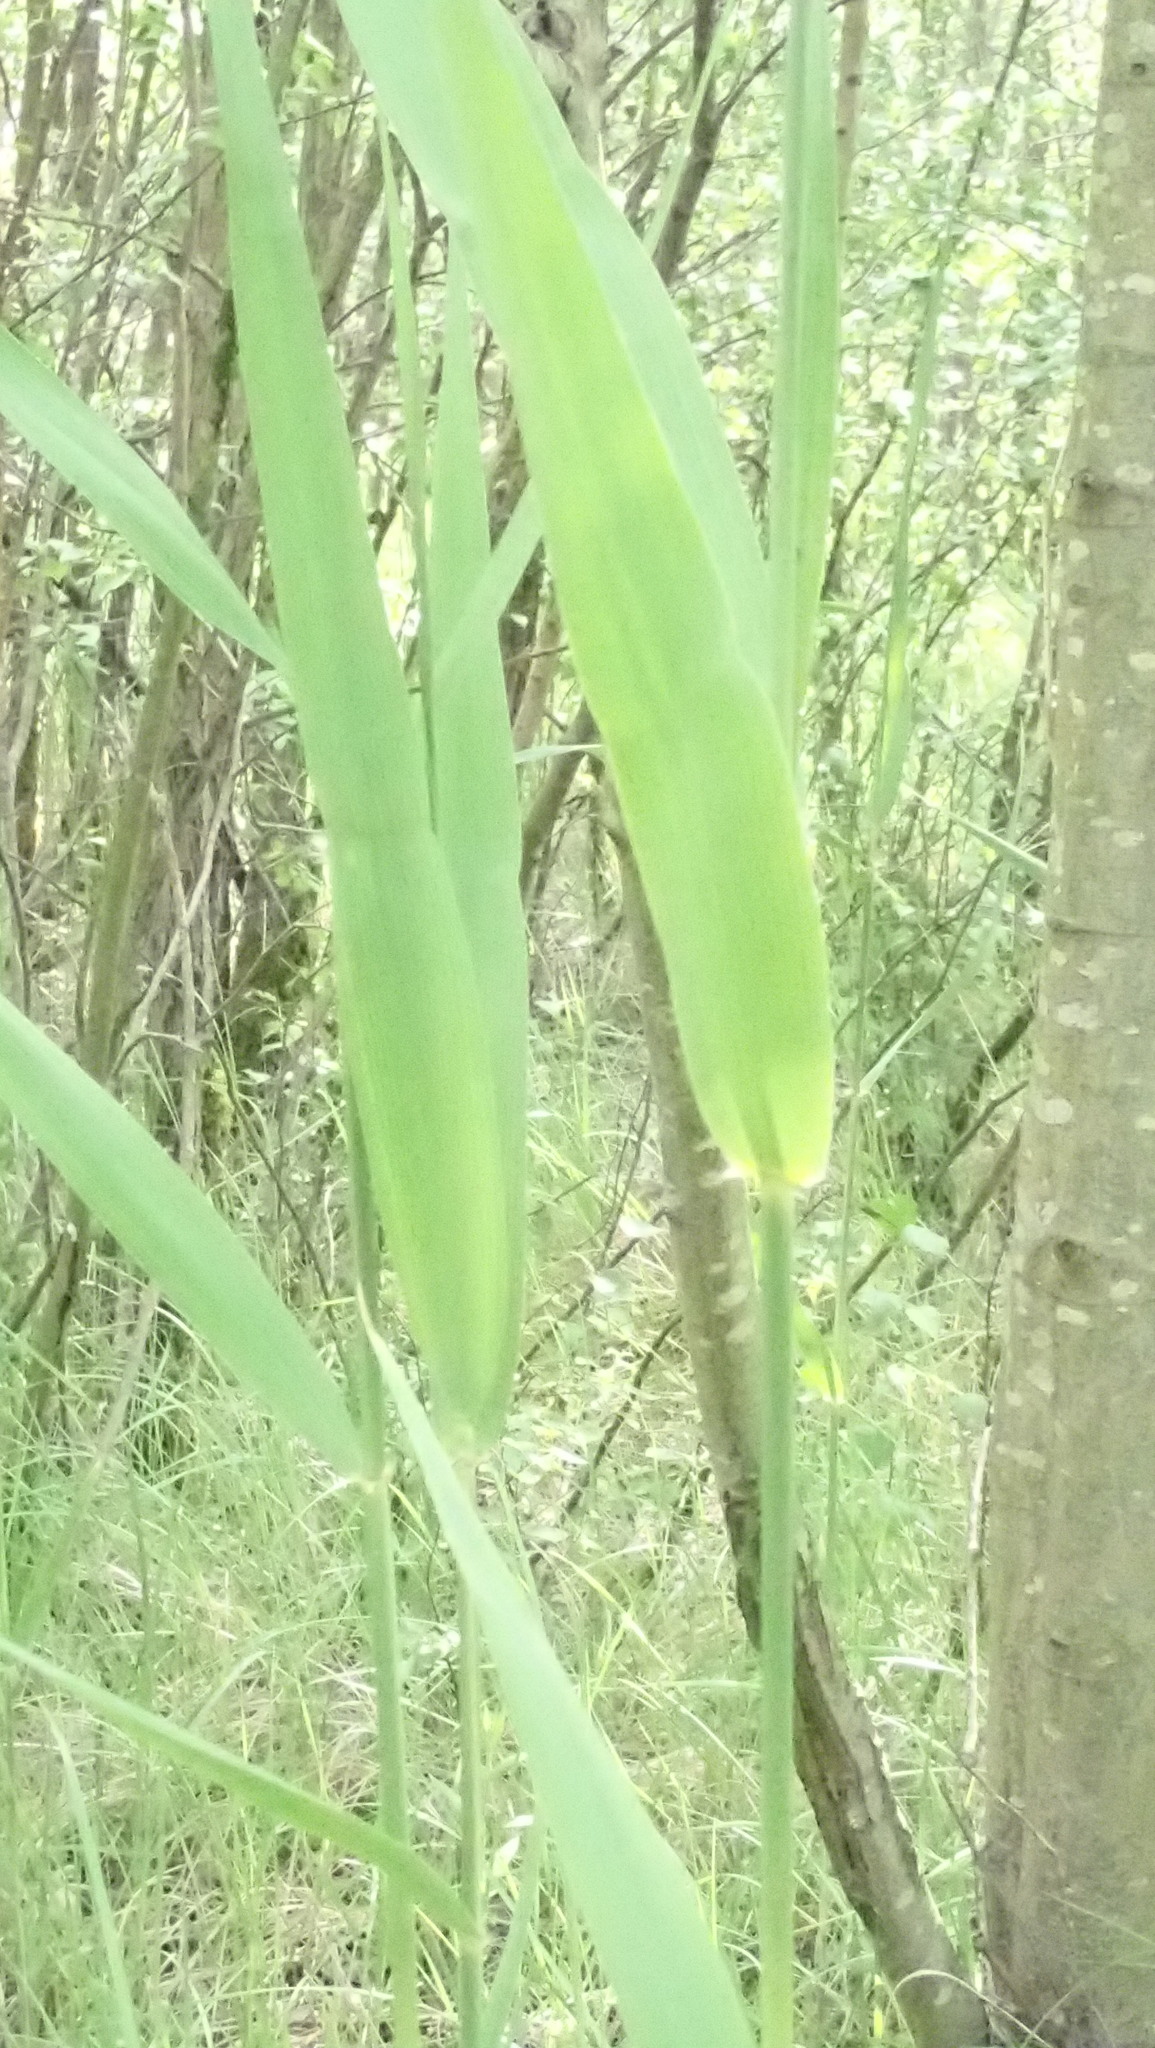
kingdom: Plantae
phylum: Tracheophyta
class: Liliopsida
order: Poales
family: Poaceae
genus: Phragmites
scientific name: Phragmites australis
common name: Common reed
